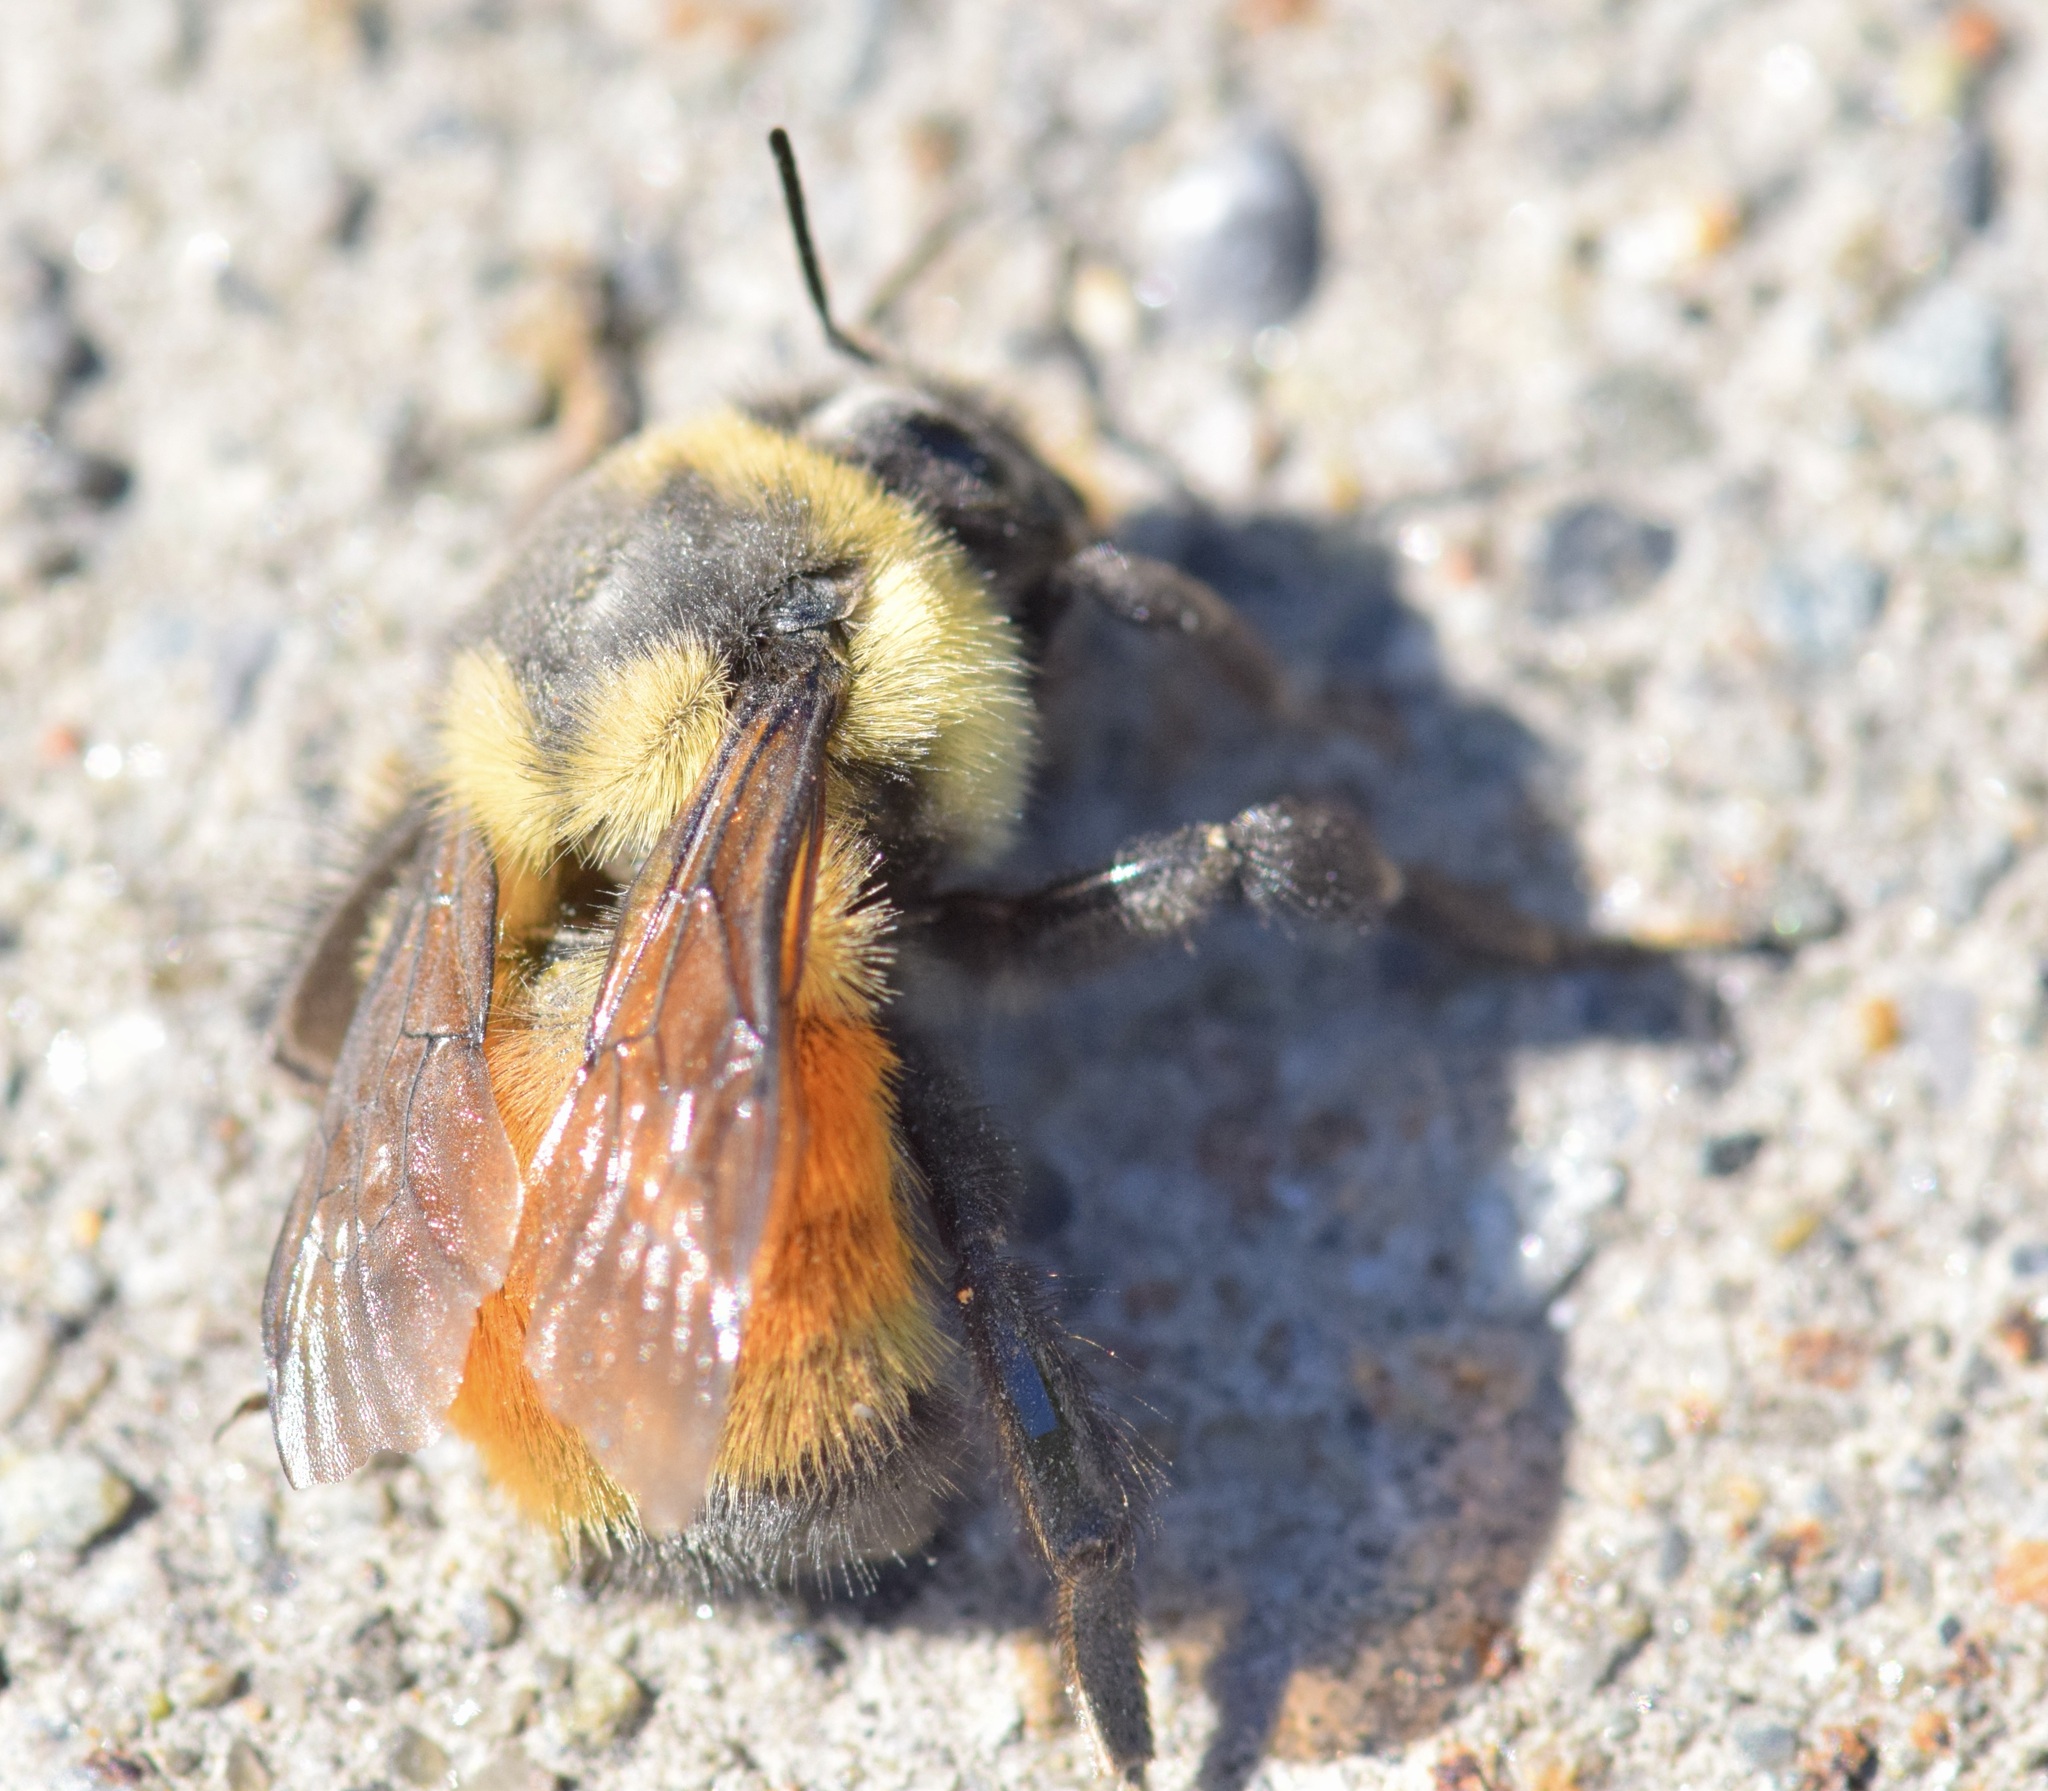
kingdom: Animalia
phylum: Arthropoda
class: Insecta
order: Hymenoptera
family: Apidae
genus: Bombus
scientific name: Bombus ternarius
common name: Tri-colored bumble bee
